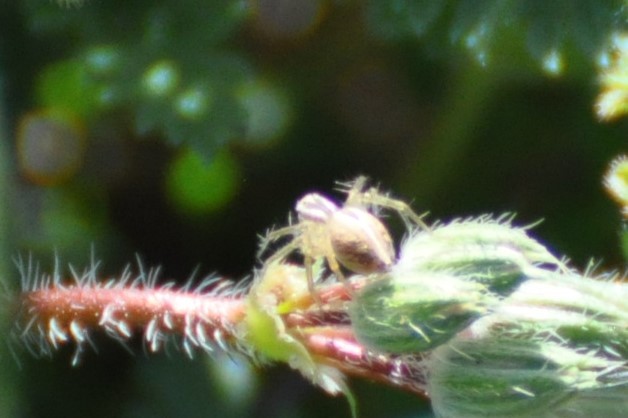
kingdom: Animalia
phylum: Arthropoda
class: Arachnida
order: Araneae
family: Oxyopidae
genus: Oxyopes
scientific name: Oxyopes salticus
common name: Lynx spiders
